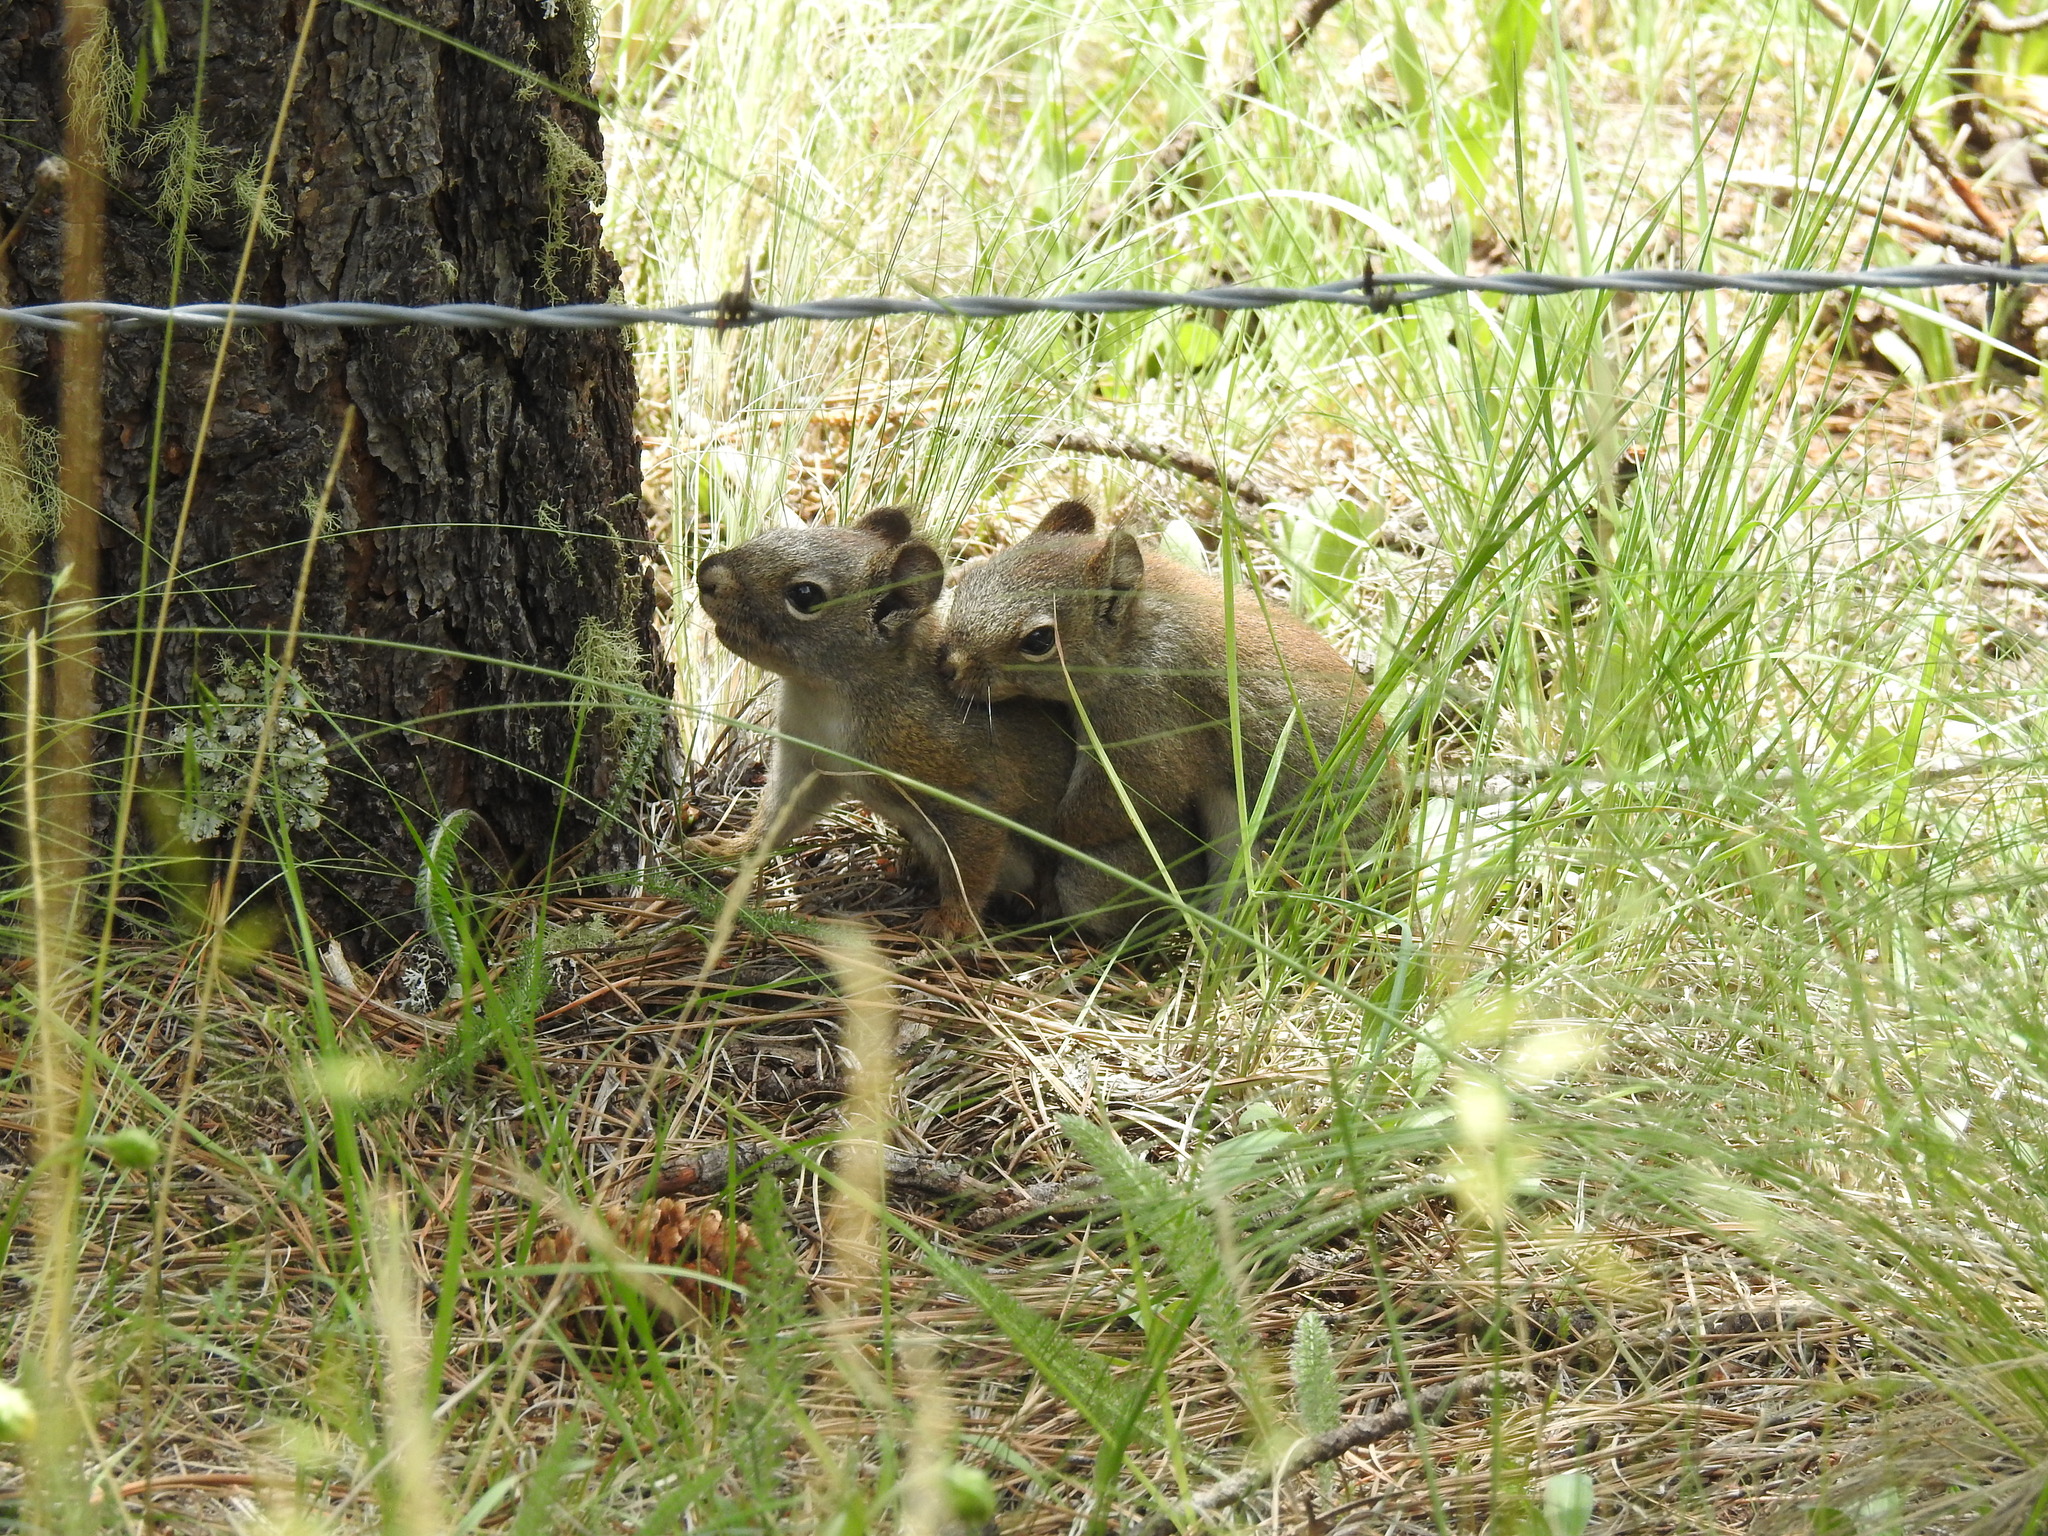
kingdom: Animalia
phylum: Chordata
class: Mammalia
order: Rodentia
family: Sciuridae
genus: Tamiasciurus
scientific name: Tamiasciurus hudsonicus
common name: Red squirrel
